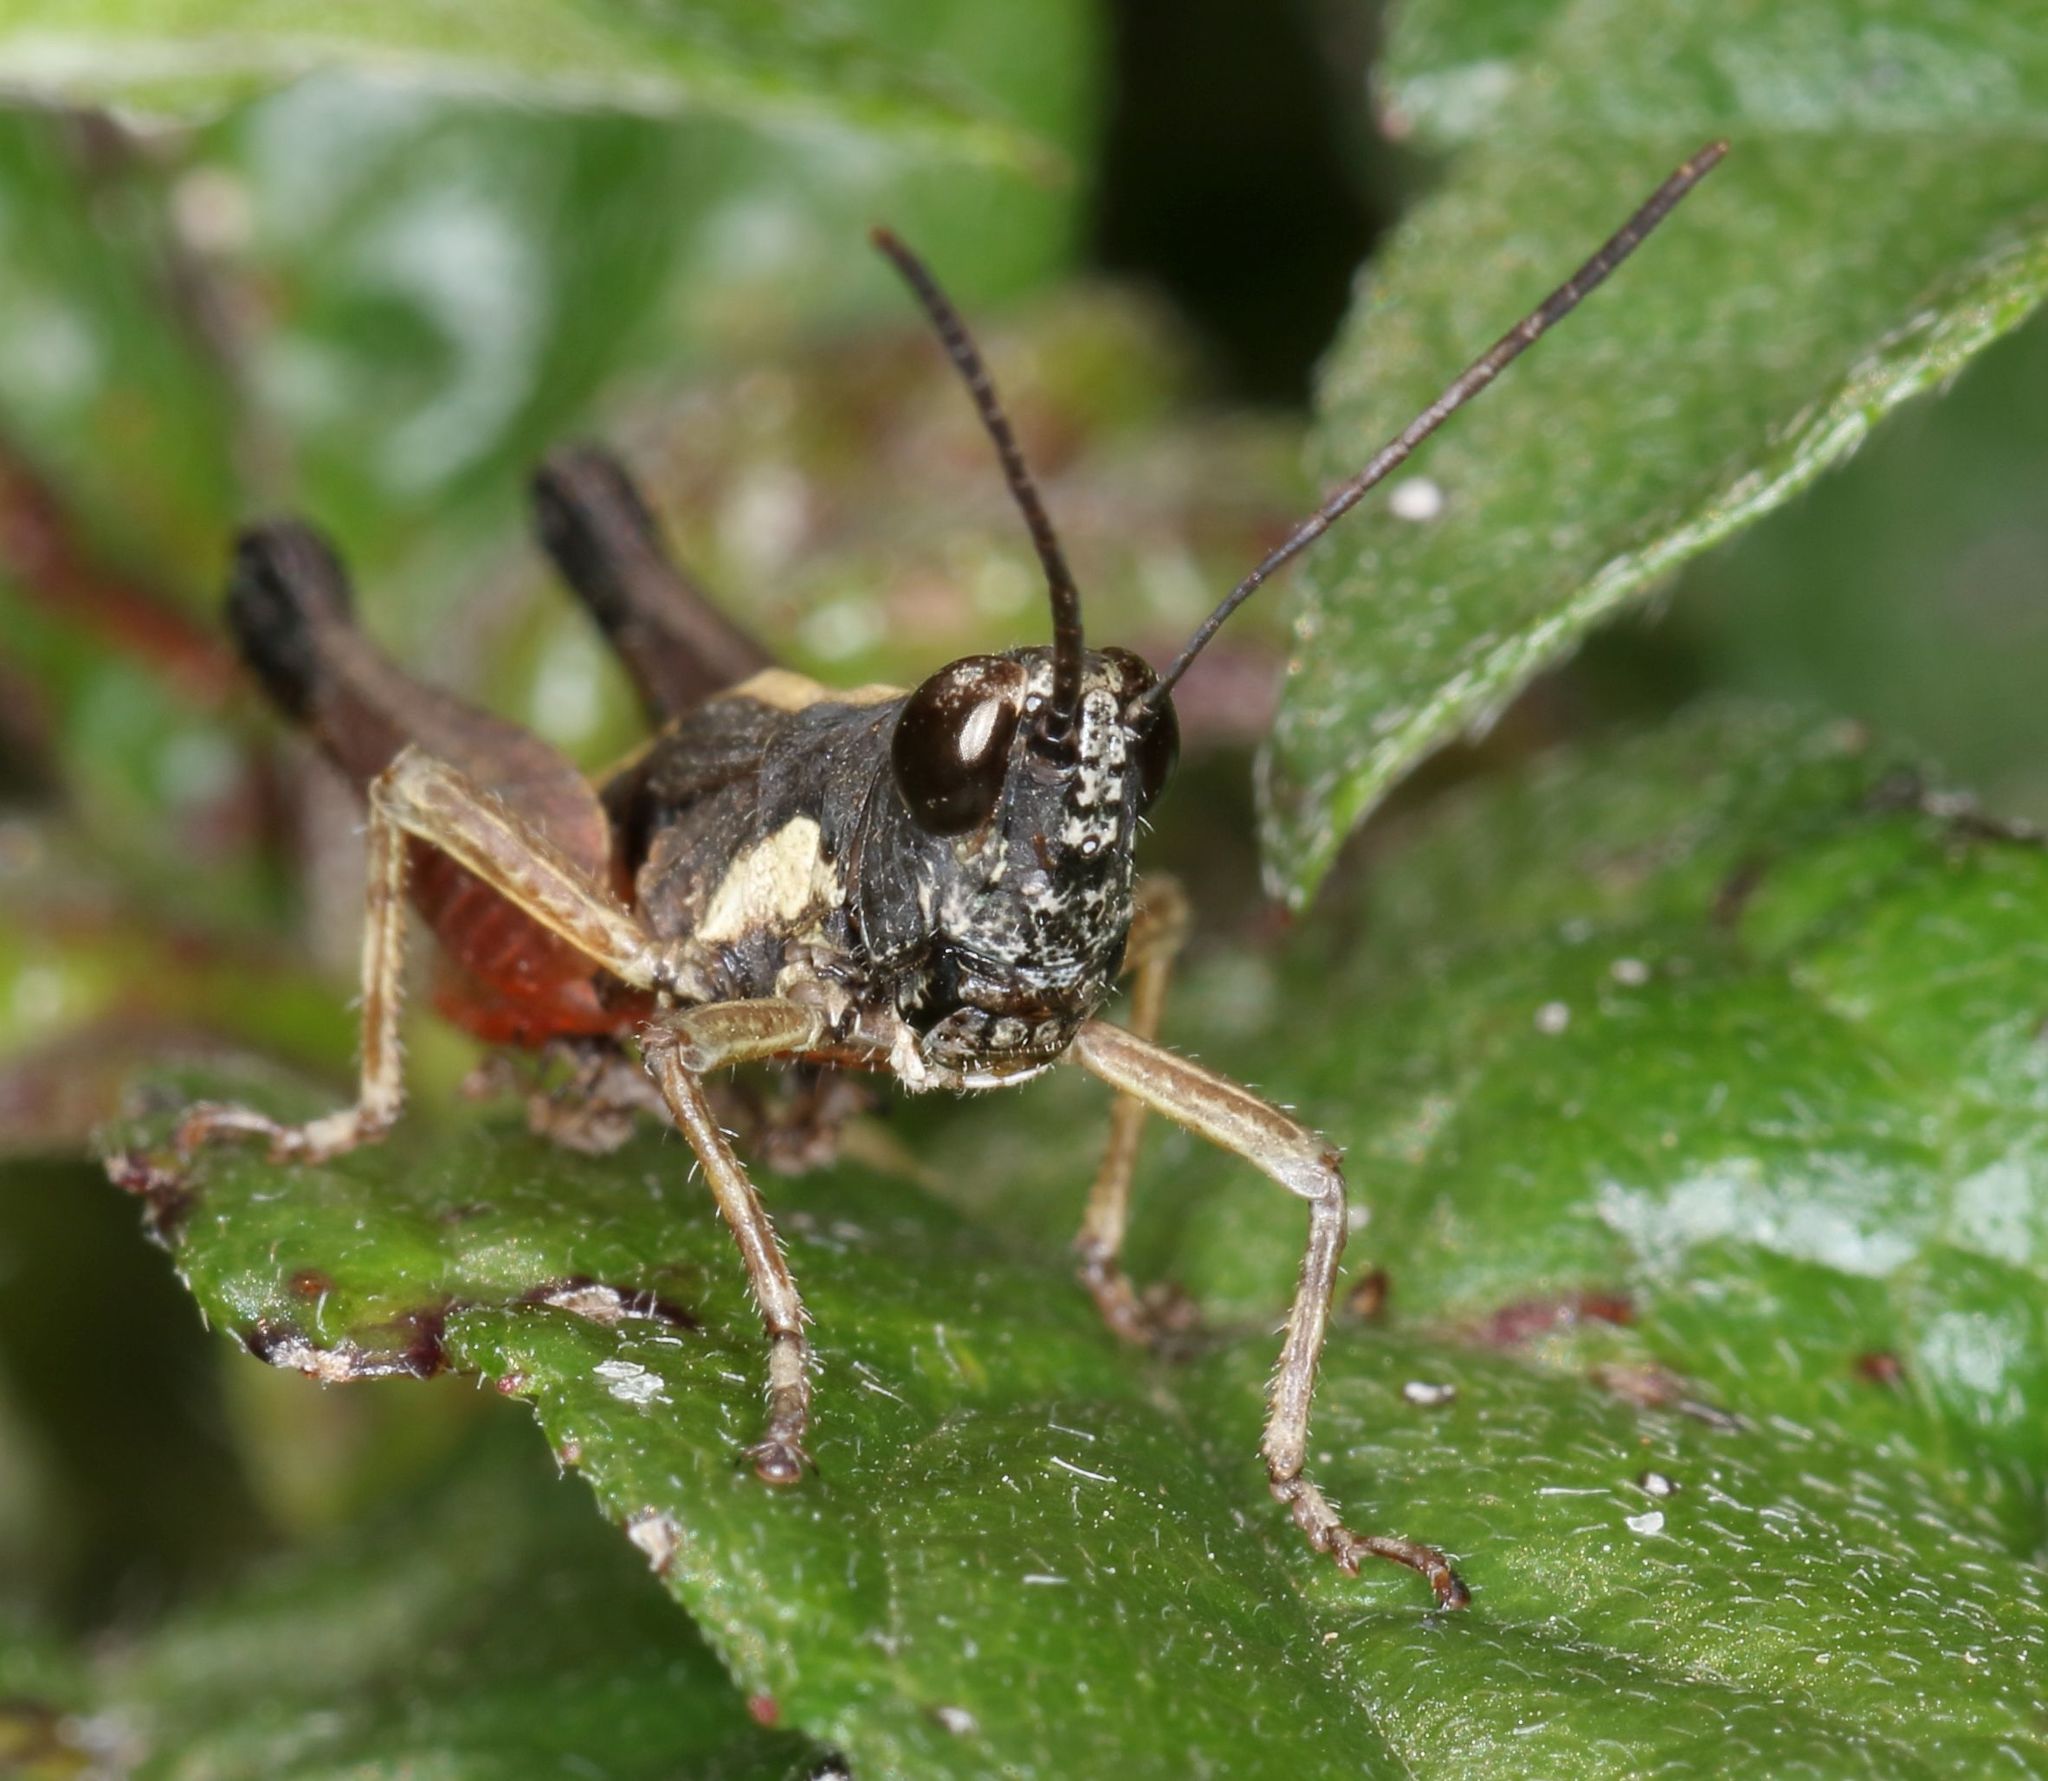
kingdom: Animalia
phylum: Arthropoda
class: Insecta
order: Orthoptera
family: Acrididae
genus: Gymnobothrus
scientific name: Gymnobothrus pullus
